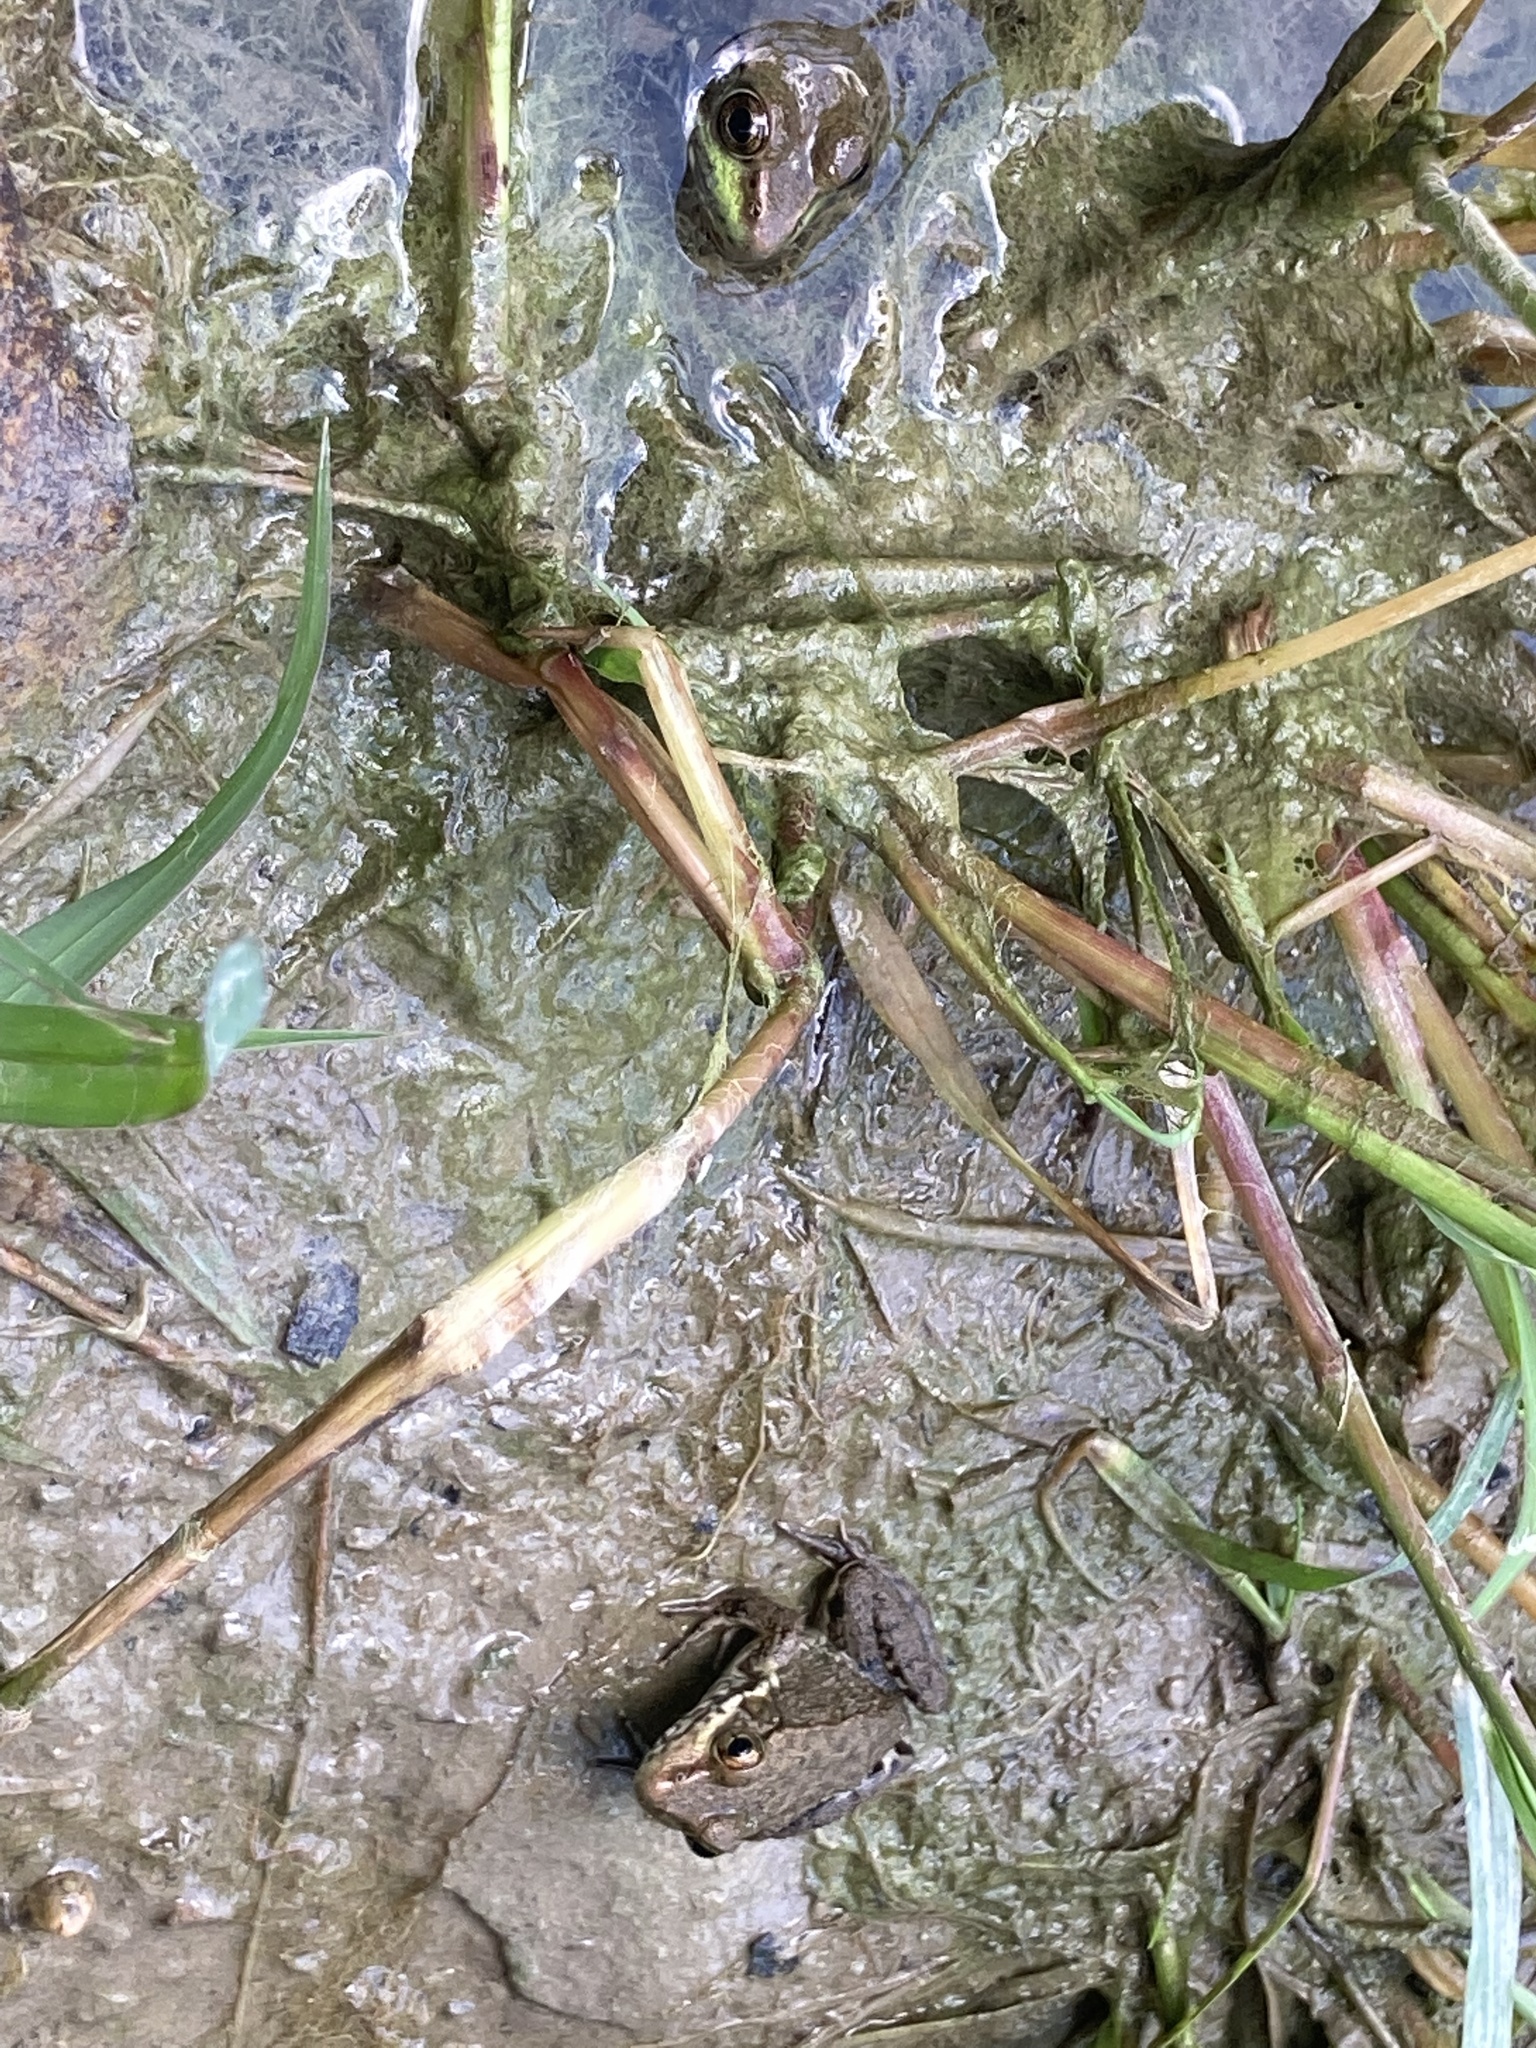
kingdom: Animalia
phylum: Chordata
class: Amphibia
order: Anura
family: Ranidae
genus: Lithobates
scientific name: Lithobates clamitans
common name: Green frog
